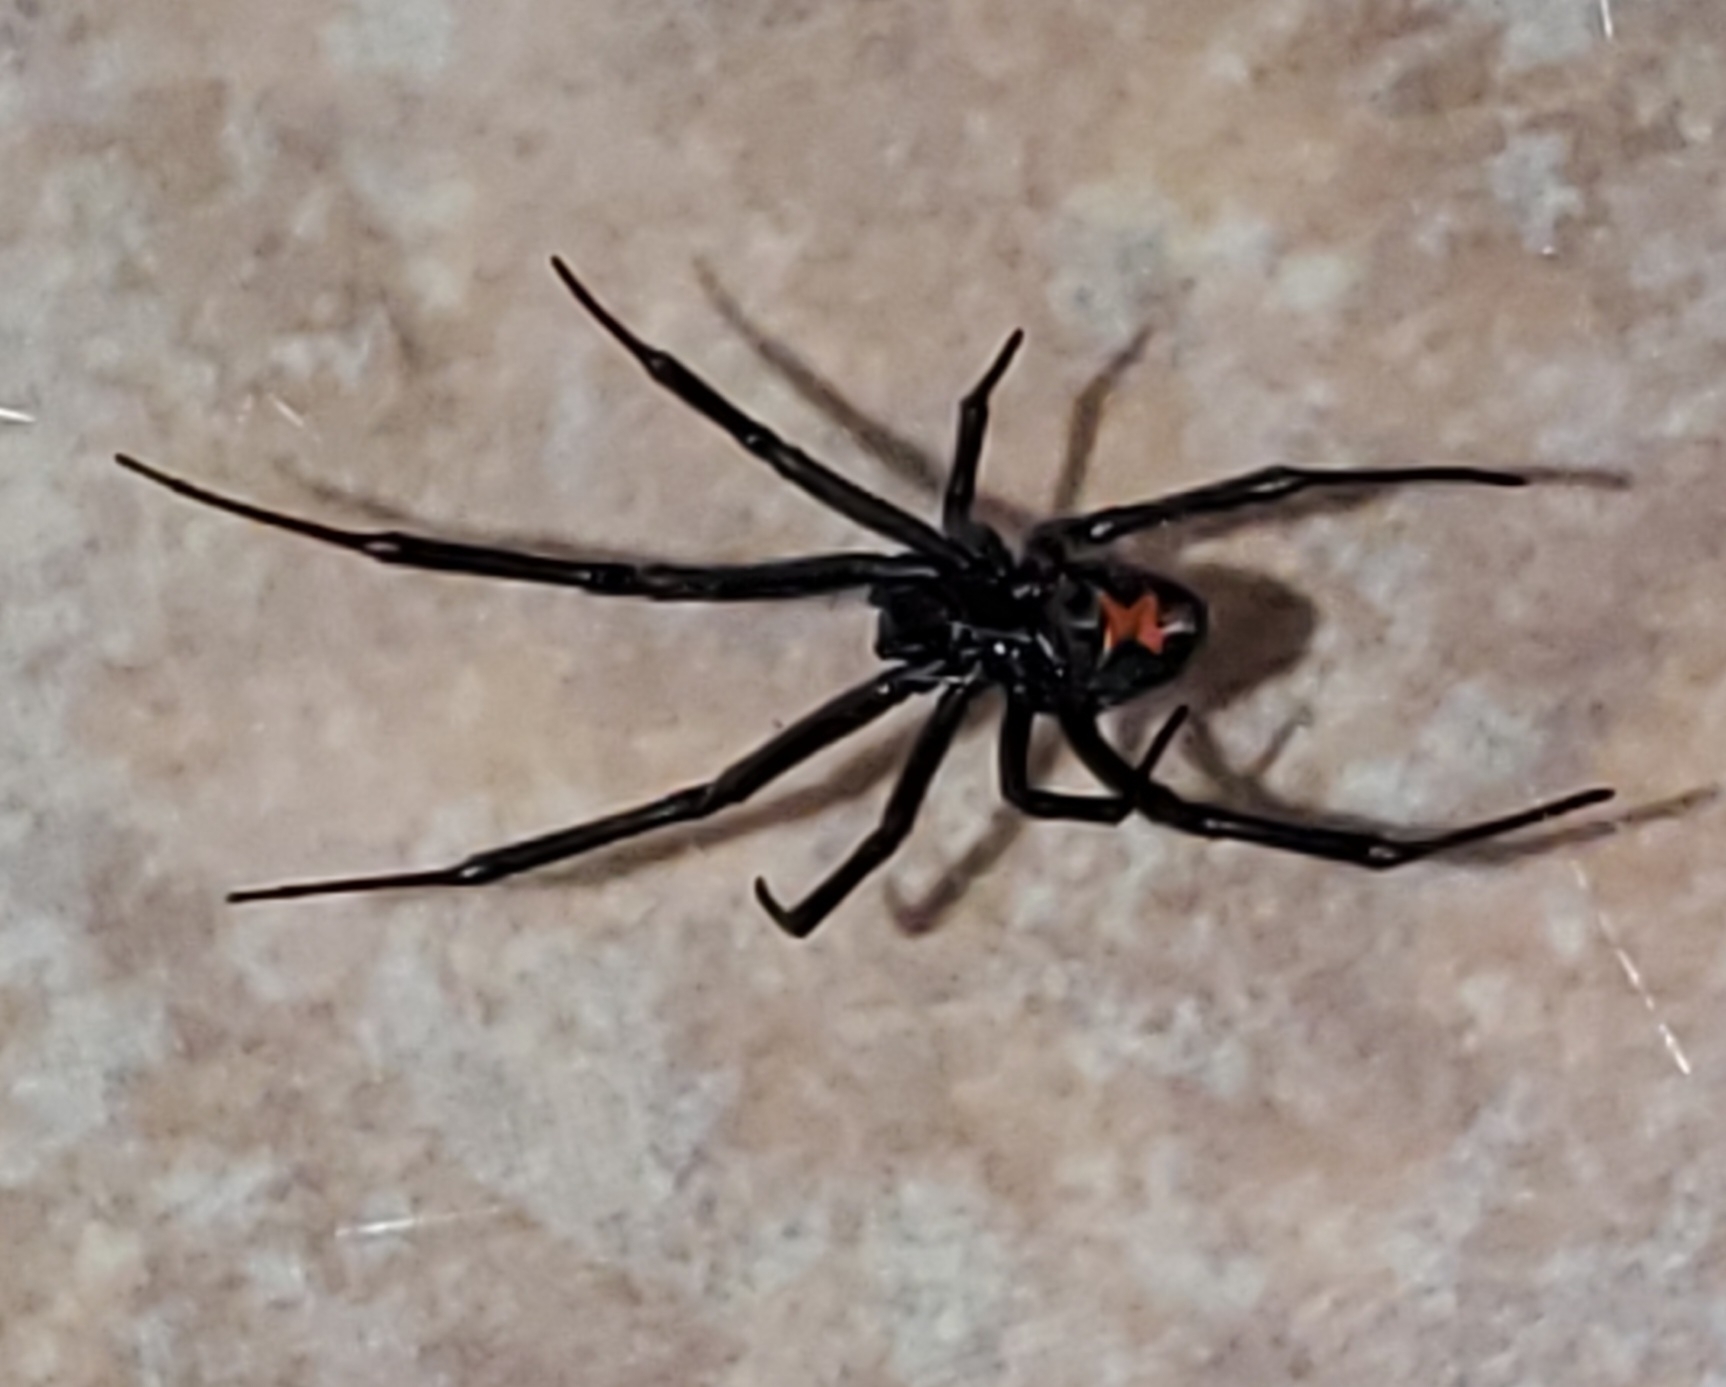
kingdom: Animalia
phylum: Arthropoda
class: Arachnida
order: Araneae
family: Theridiidae
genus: Latrodectus
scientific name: Latrodectus hesperus
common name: Western black widow
